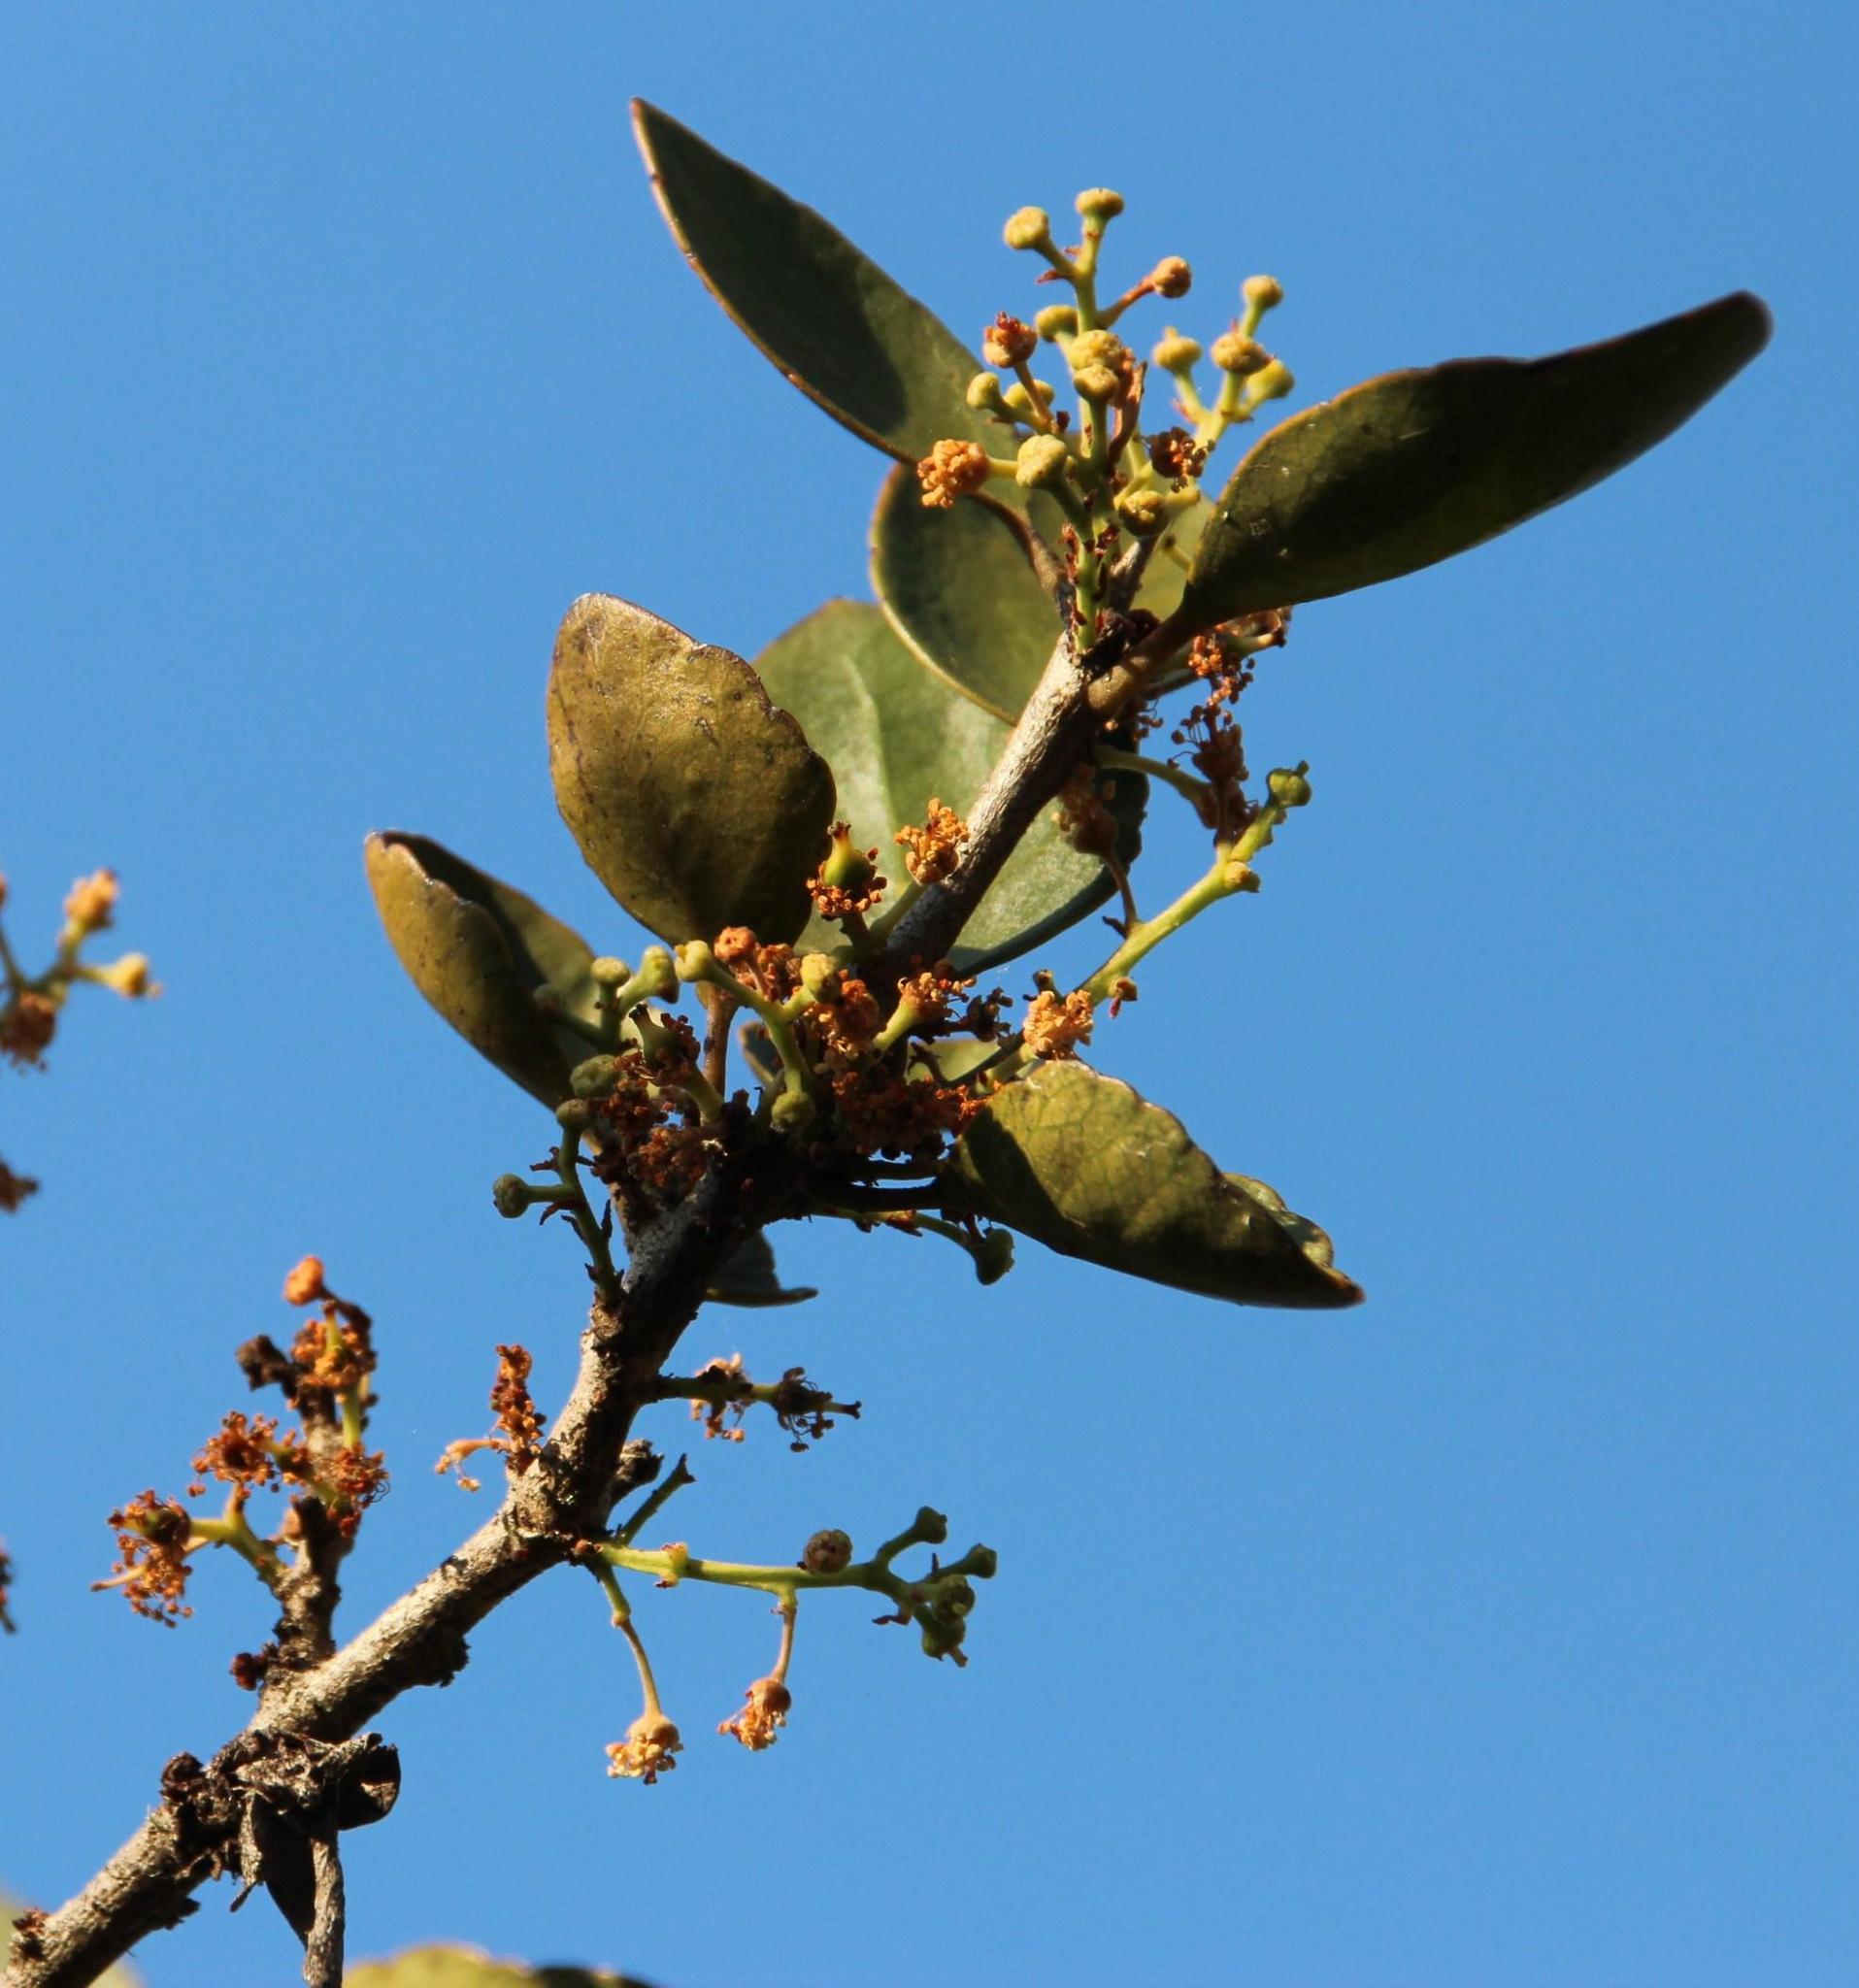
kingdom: Plantae
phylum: Tracheophyta
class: Magnoliopsida
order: Malpighiales
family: Salicaceae
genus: Dovyalis
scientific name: Dovyalis rotundifolia
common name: Dune sourberry
